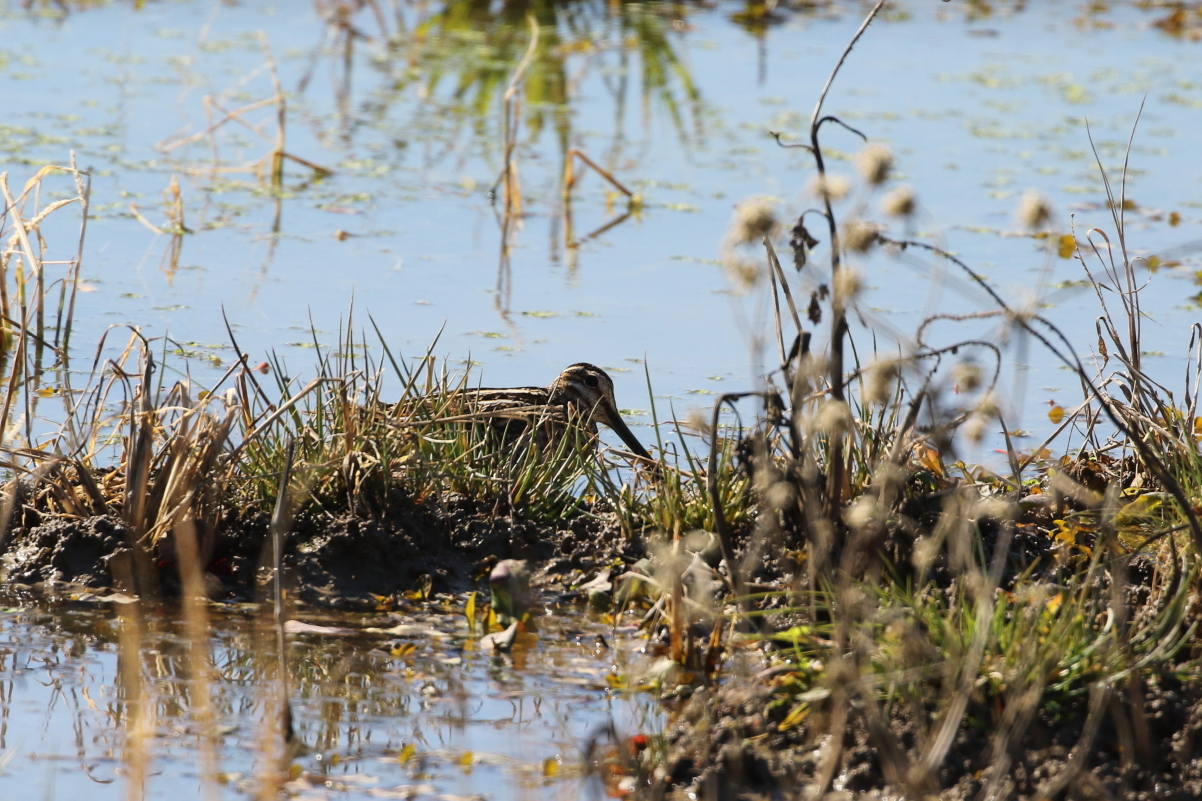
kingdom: Animalia
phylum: Chordata
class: Aves
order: Charadriiformes
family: Scolopacidae
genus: Gallinago
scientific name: Gallinago delicata
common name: Wilson's snipe
